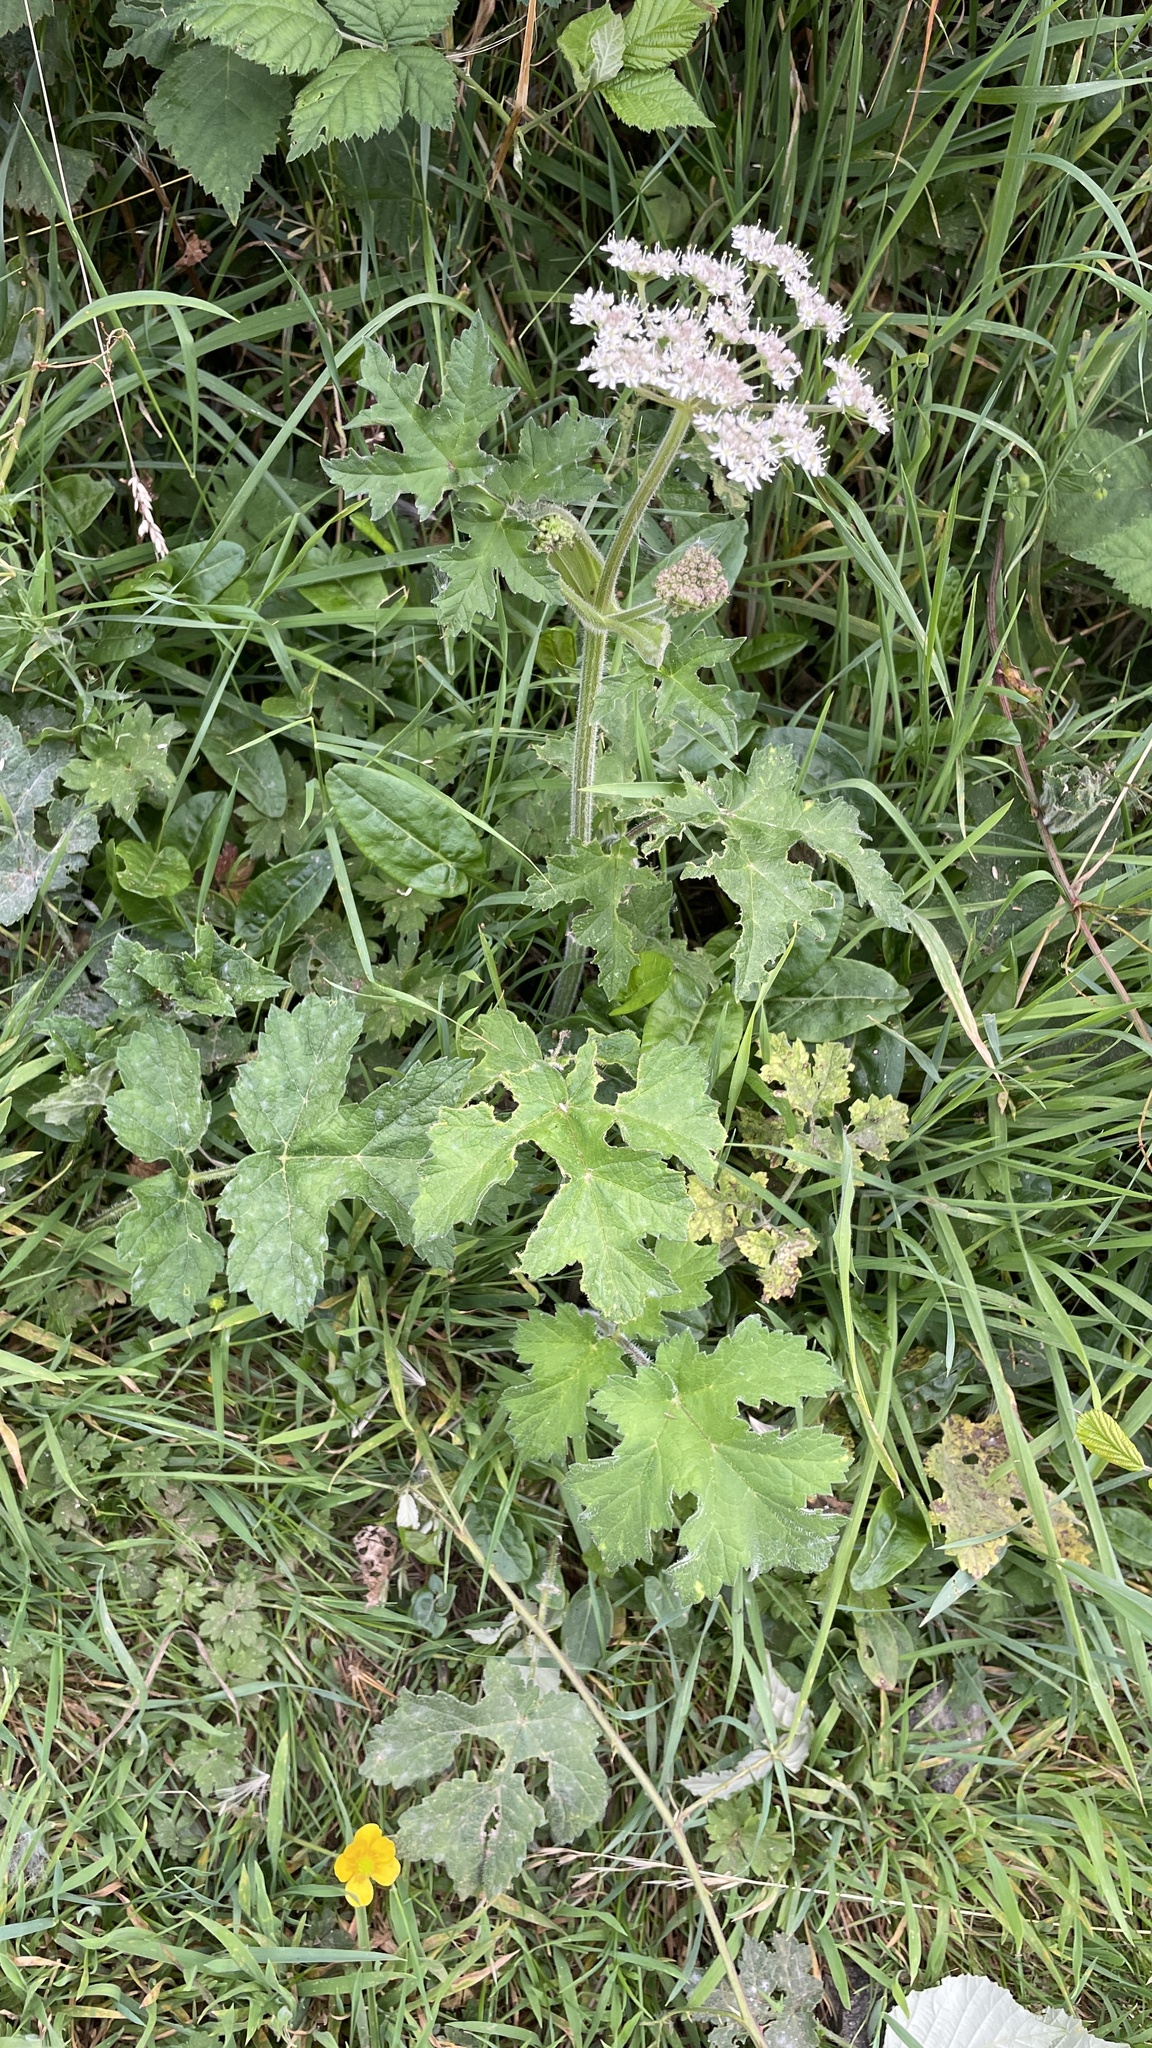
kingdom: Plantae
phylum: Tracheophyta
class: Magnoliopsida
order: Apiales
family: Apiaceae
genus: Heracleum
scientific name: Heracleum sphondylium
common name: Hogweed
